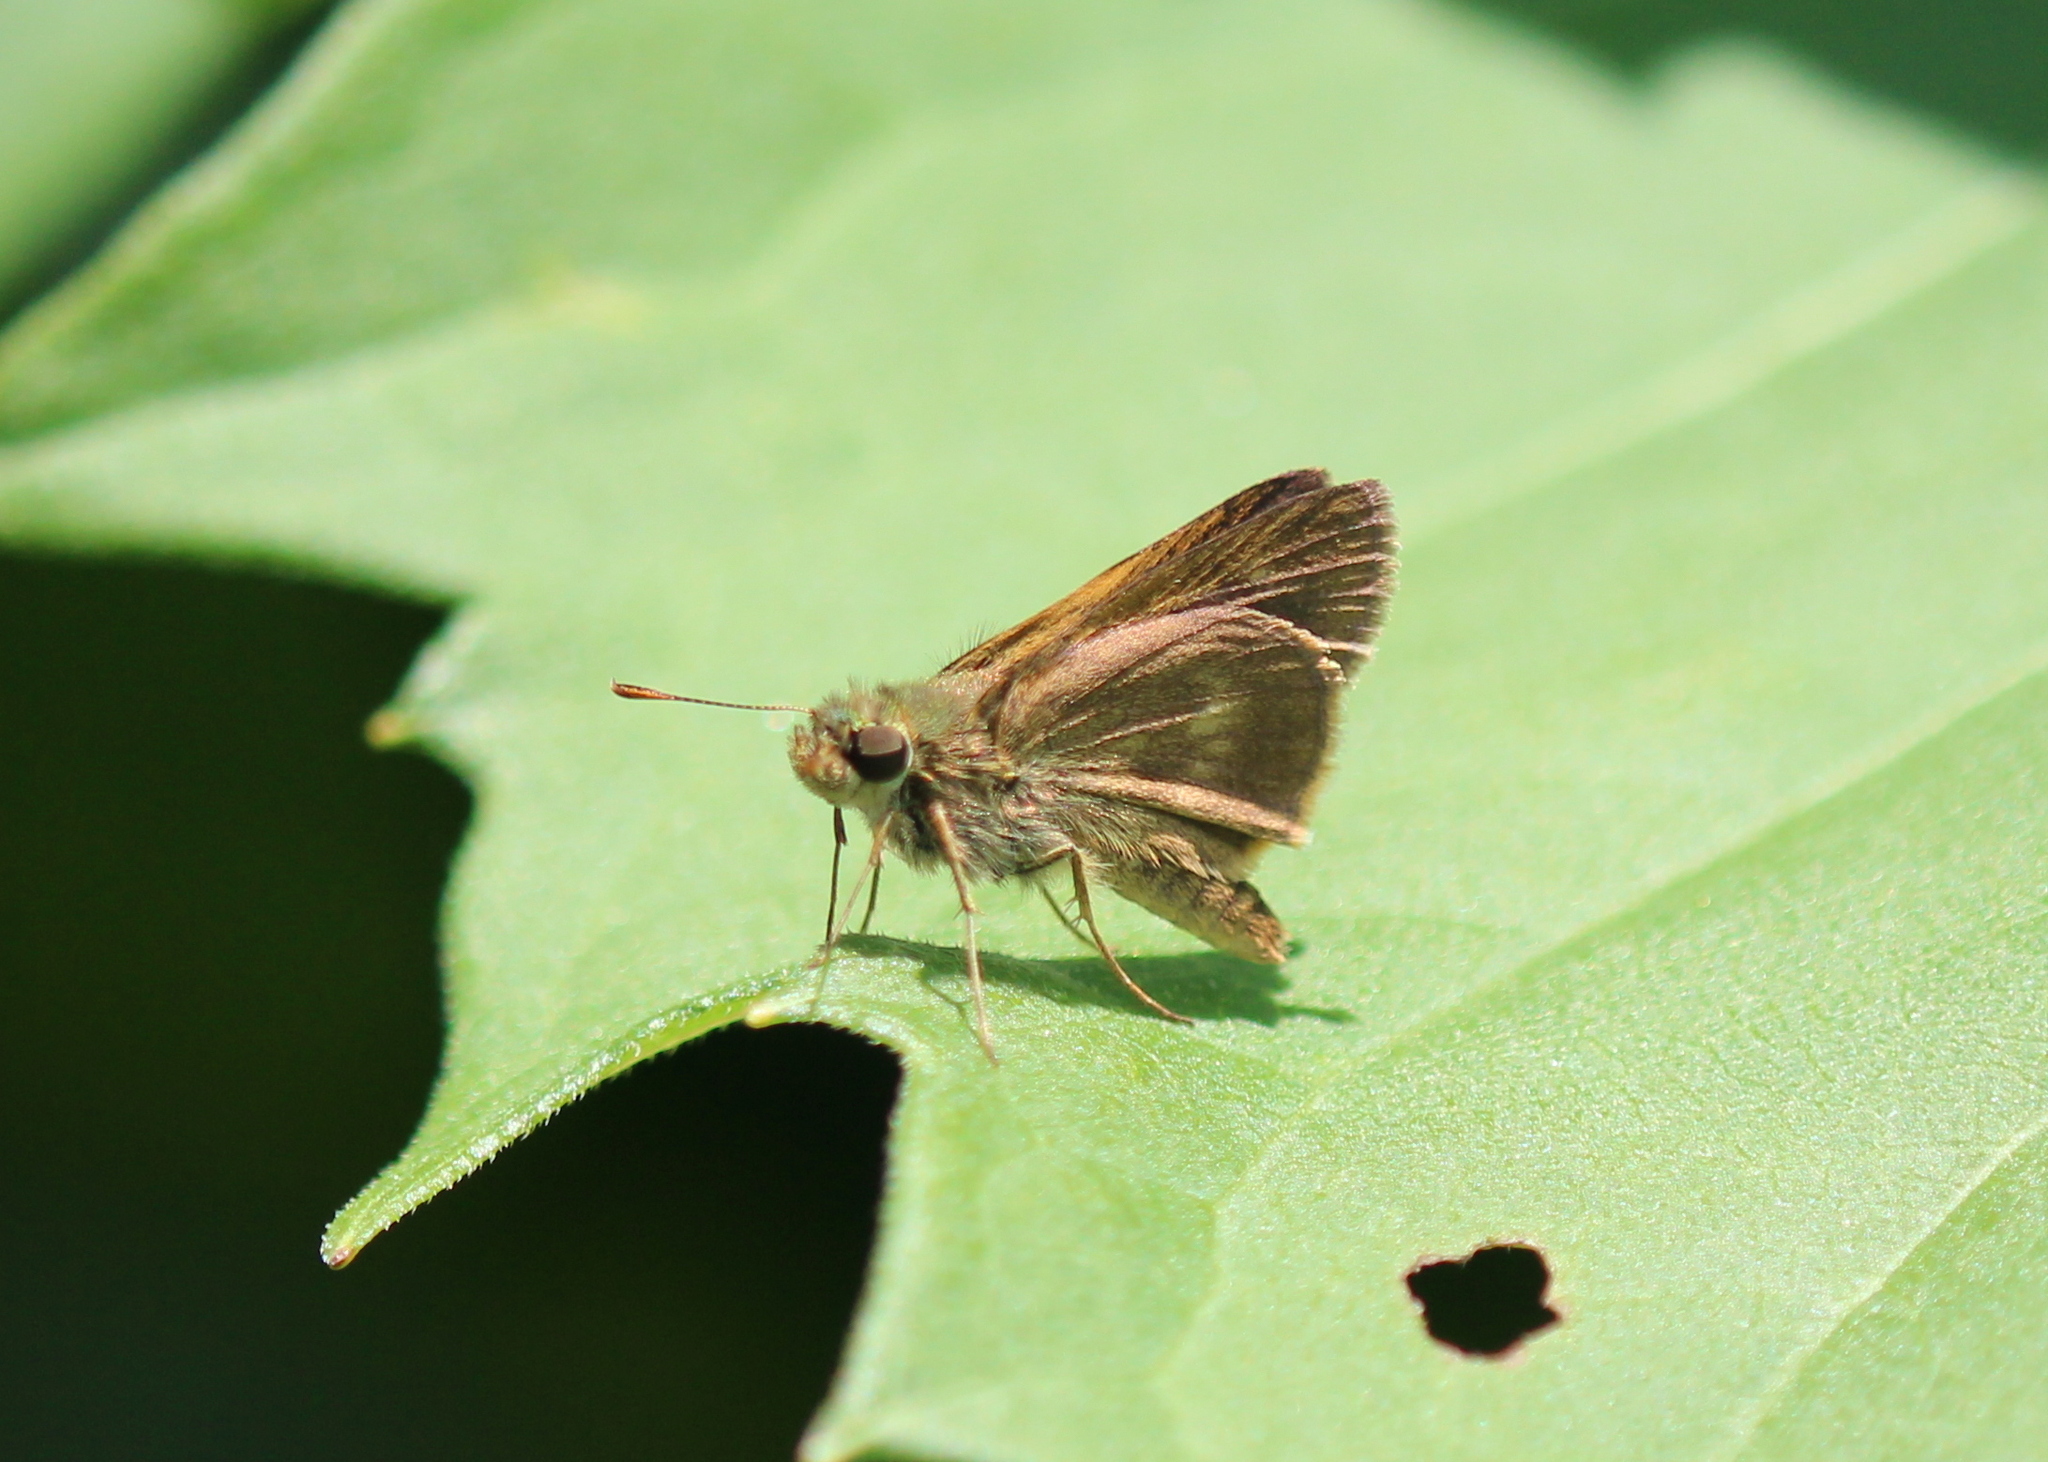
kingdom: Animalia
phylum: Arthropoda
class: Insecta
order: Lepidoptera
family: Hesperiidae
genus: Polites
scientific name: Polites egeremet
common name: Northern broken-dash
